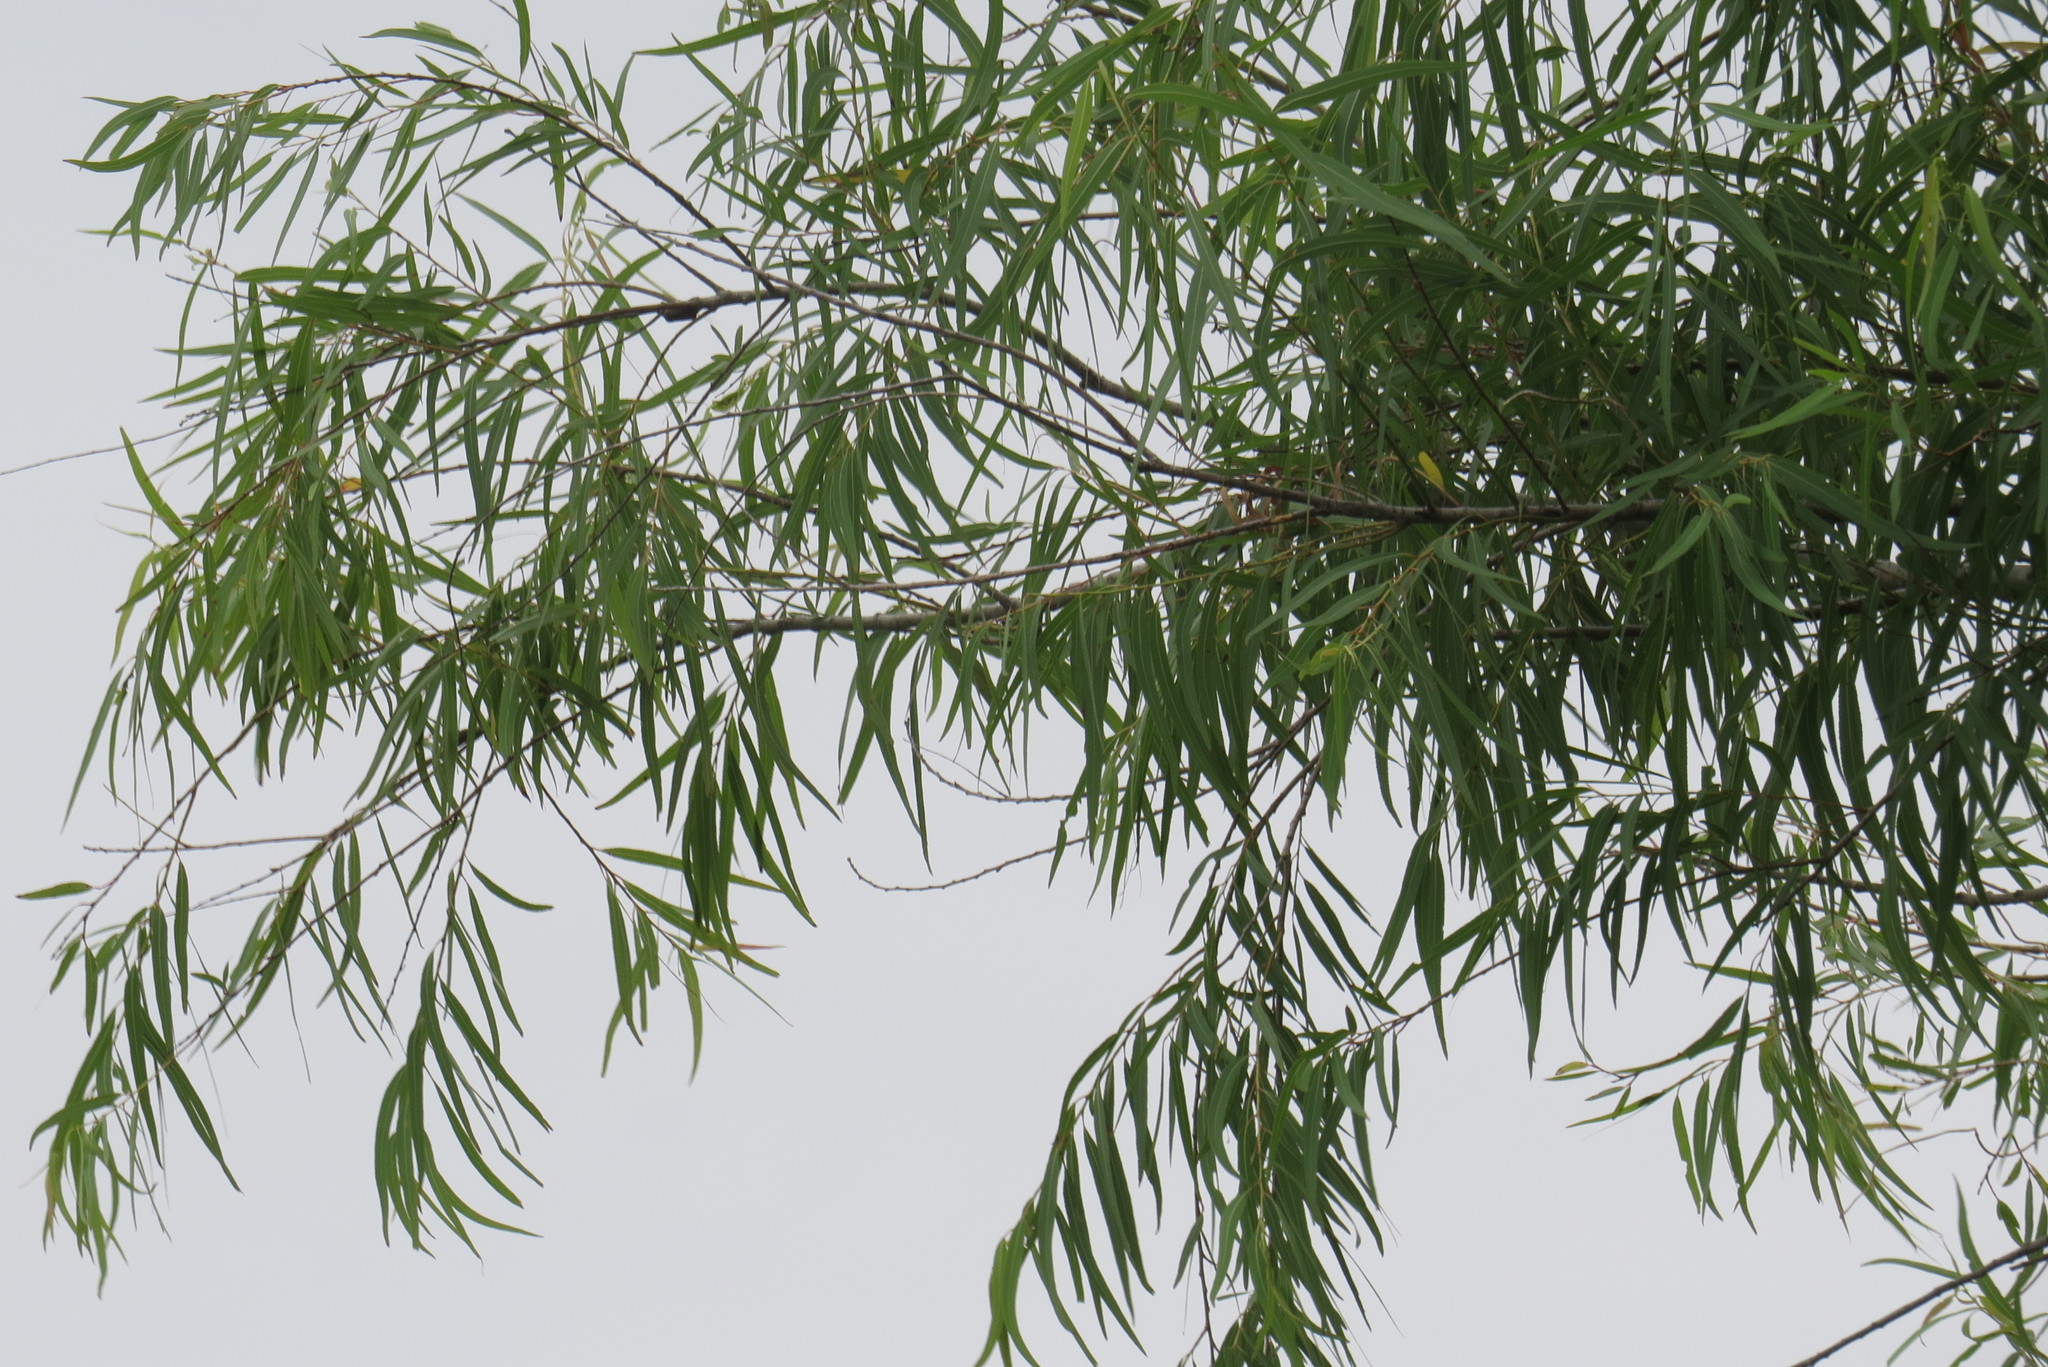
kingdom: Plantae
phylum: Tracheophyta
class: Magnoliopsida
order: Malpighiales
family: Salicaceae
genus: Salix
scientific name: Salix nigra
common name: Black willow
